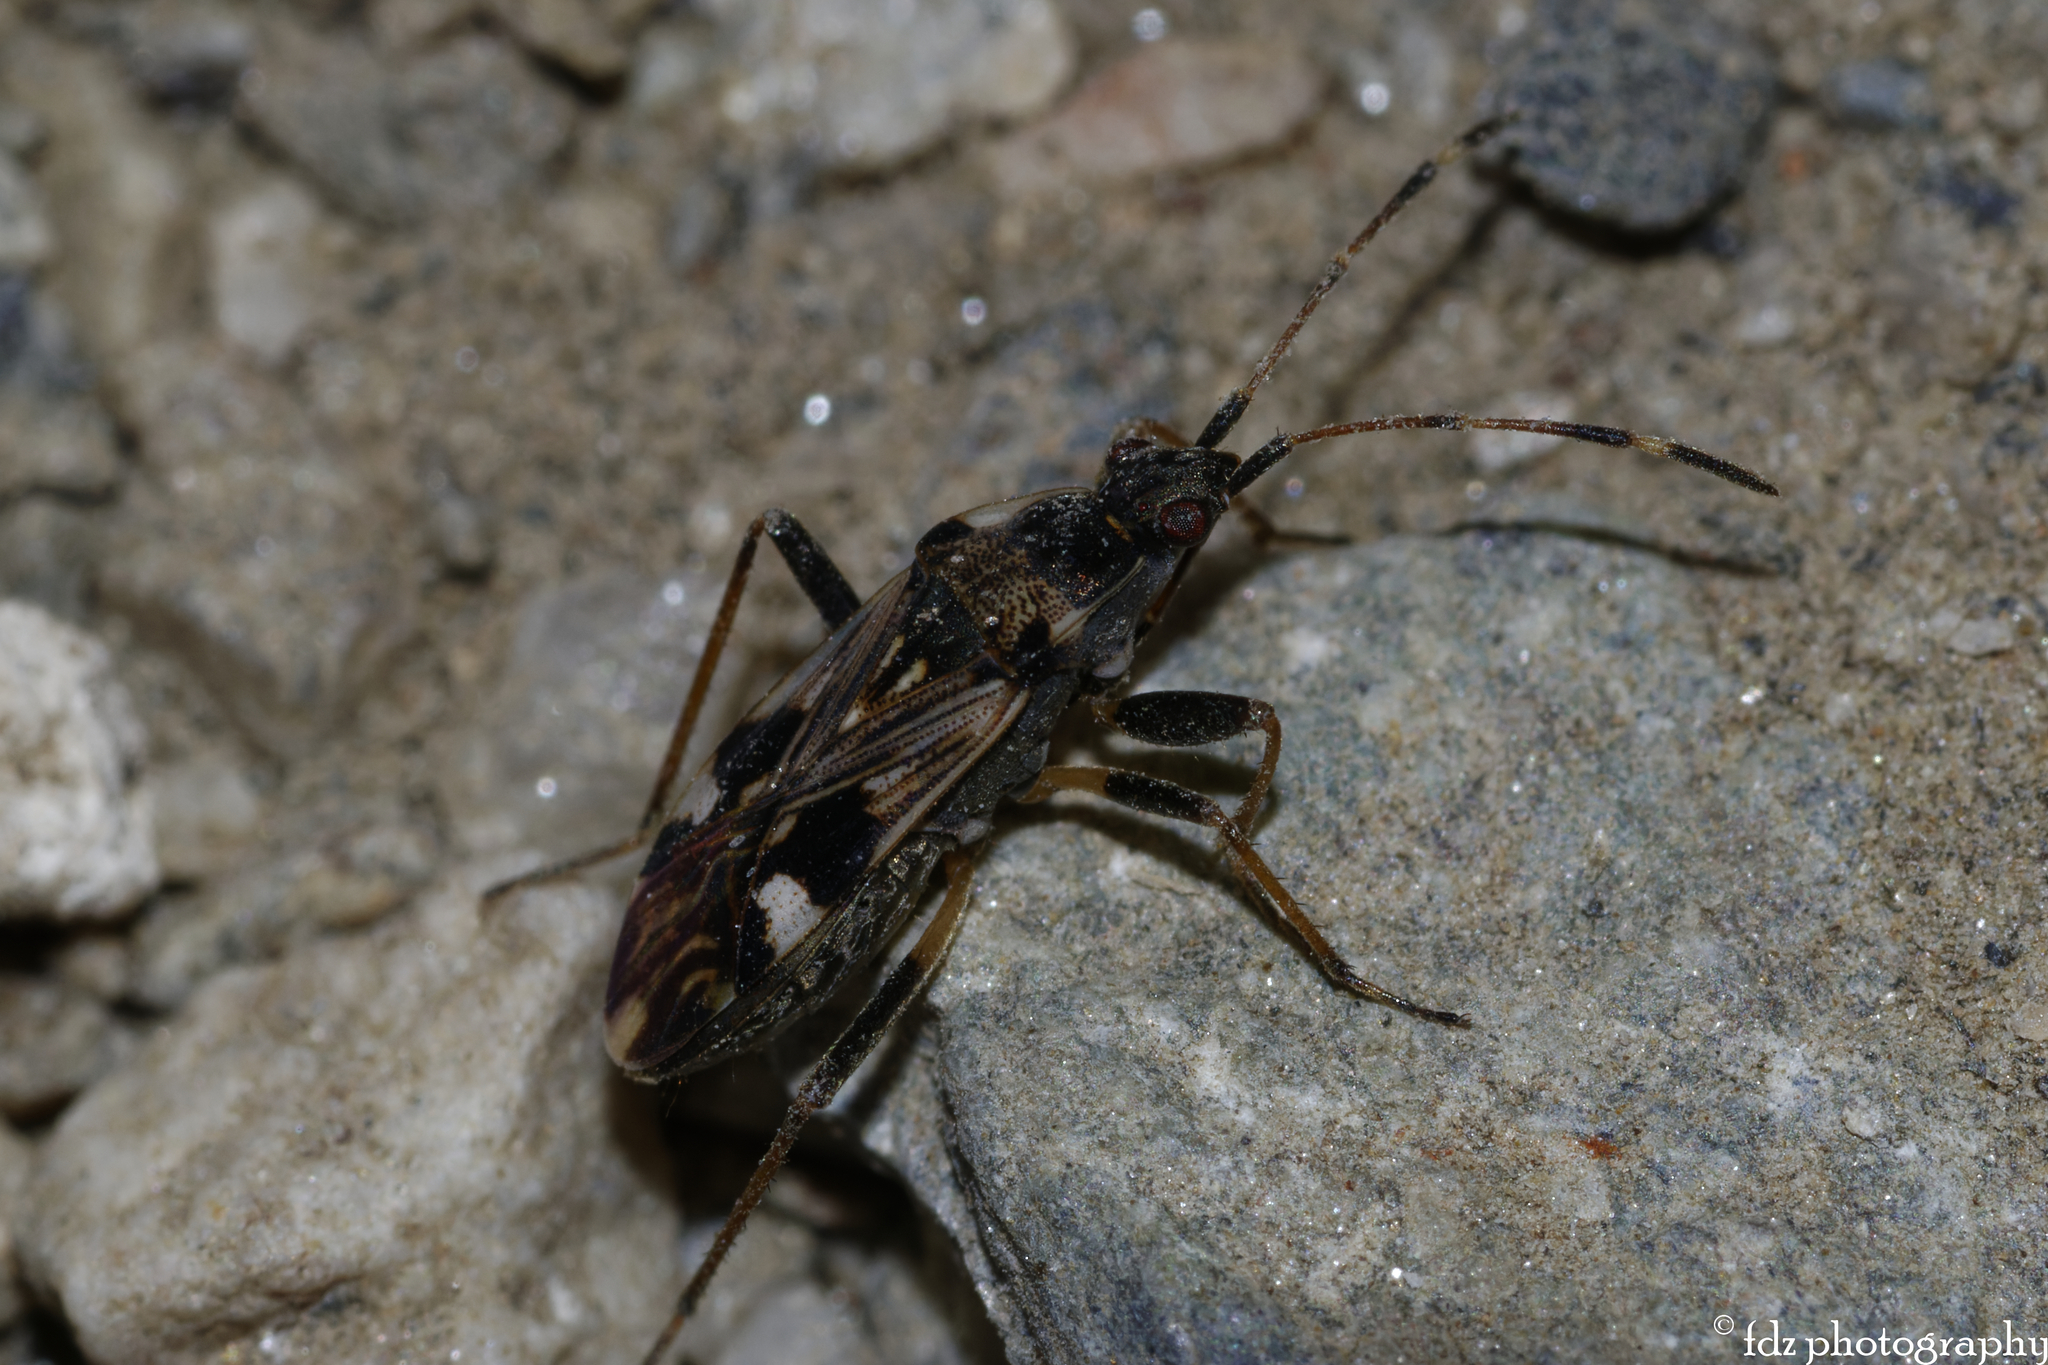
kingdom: Animalia
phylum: Arthropoda
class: Insecta
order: Hemiptera
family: Rhyparochromidae
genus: Beosus
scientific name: Beosus maritimus
